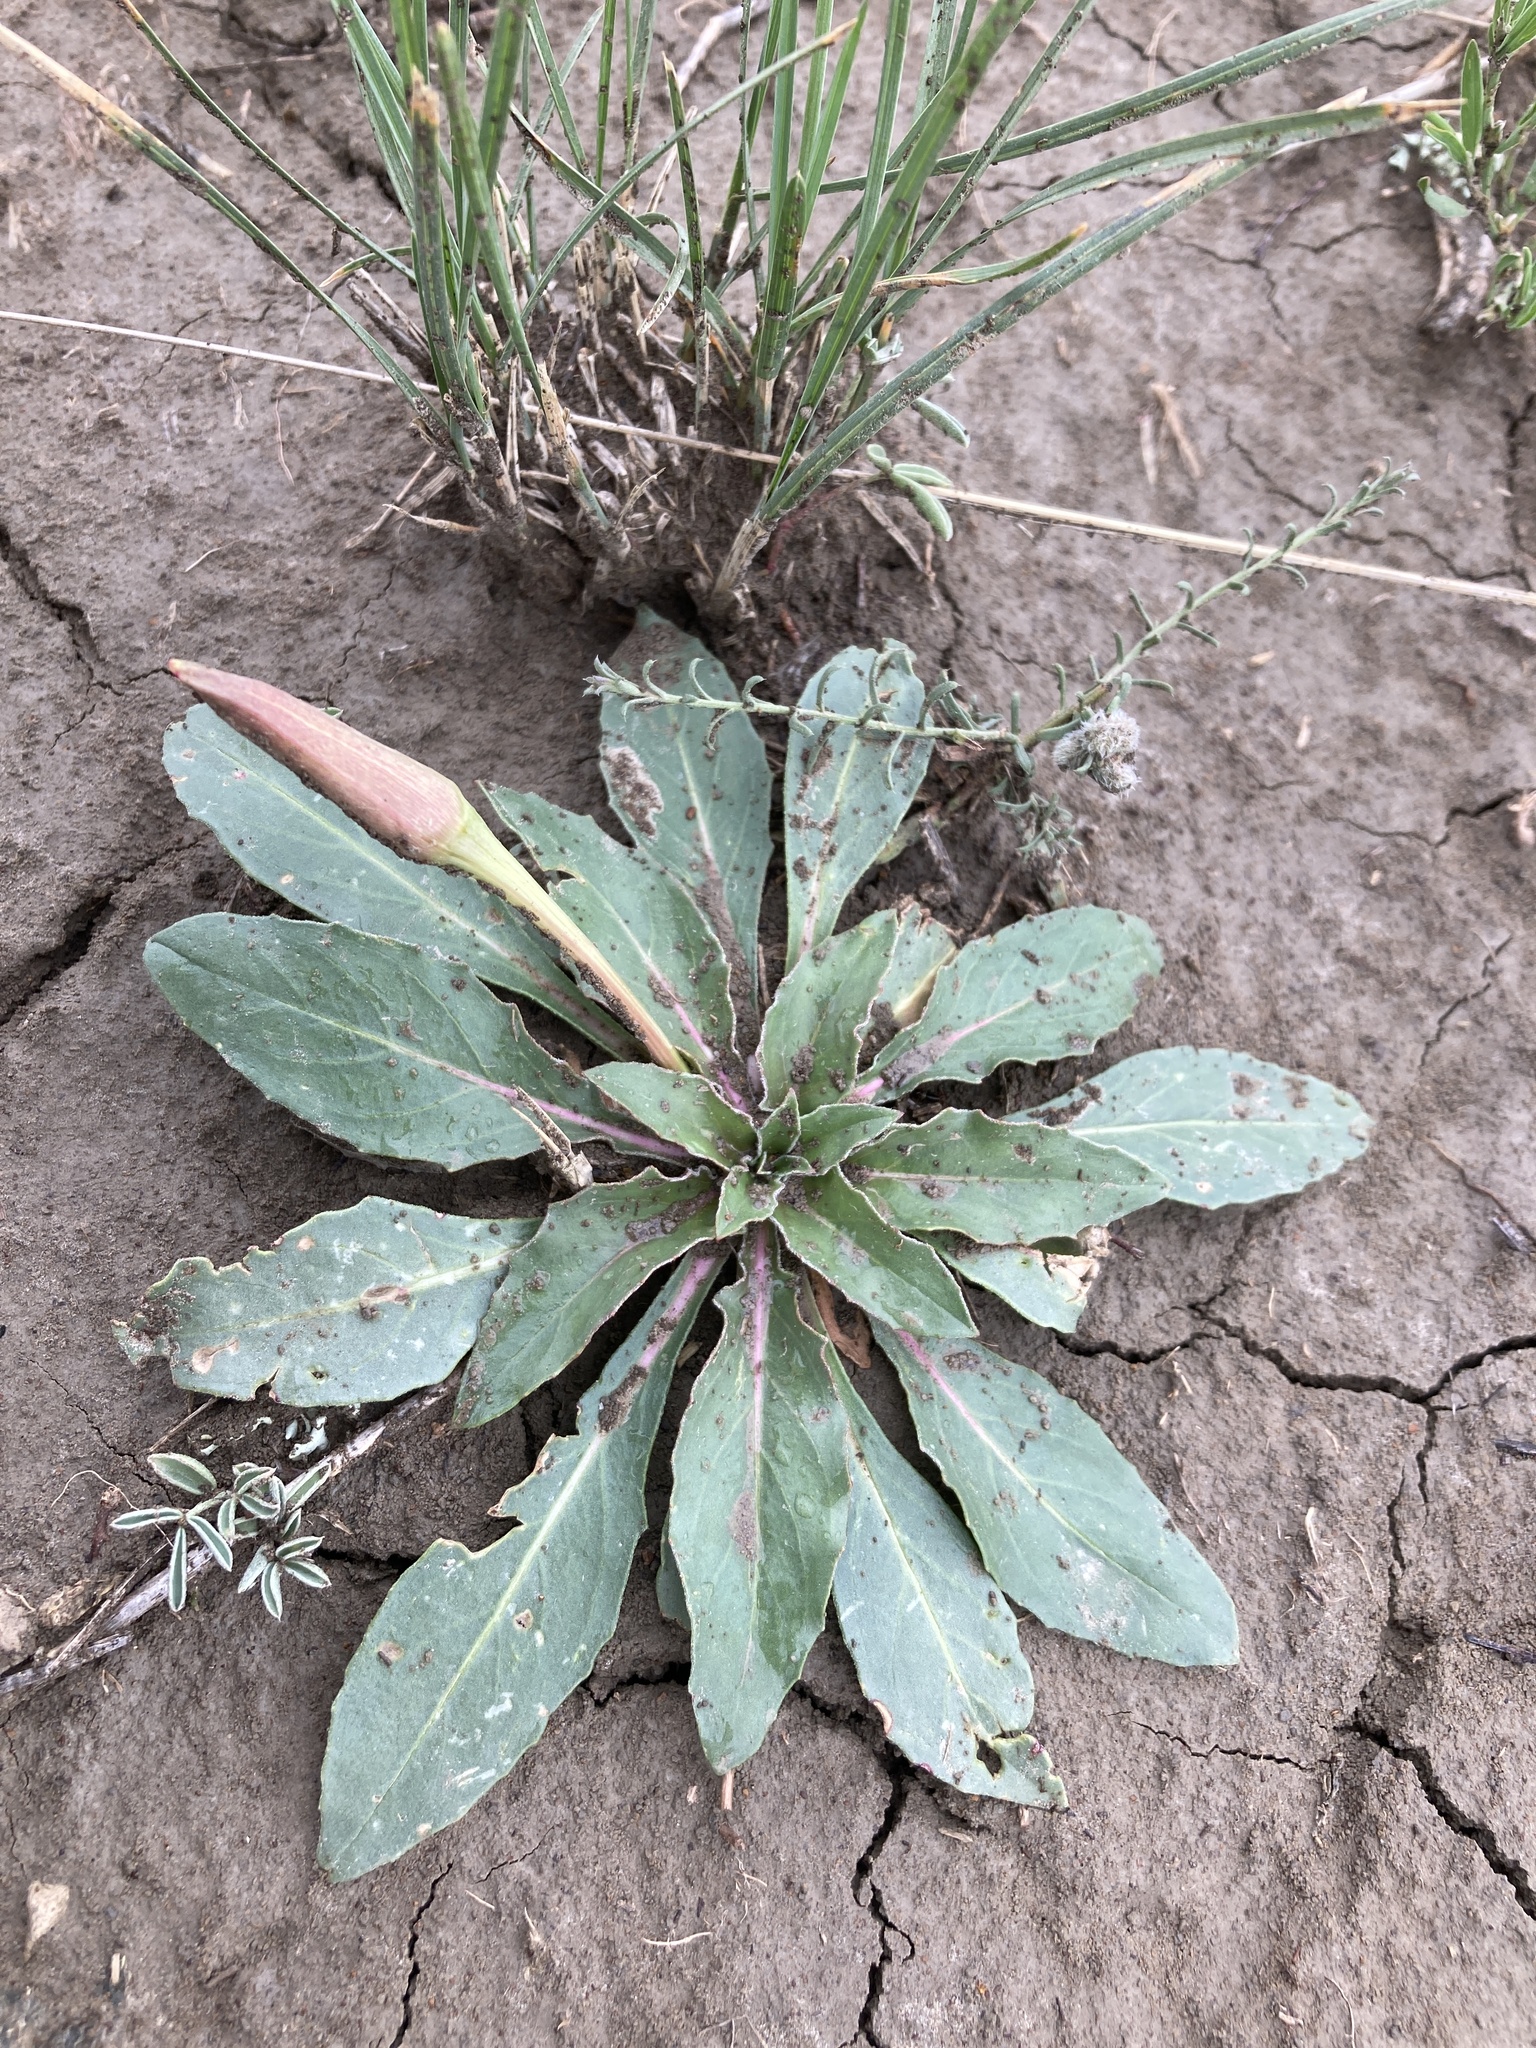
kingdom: Plantae
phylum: Tracheophyta
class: Magnoliopsida
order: Myrtales
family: Onagraceae
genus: Oenothera
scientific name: Oenothera cespitosa
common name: Tufted evening-primrose
